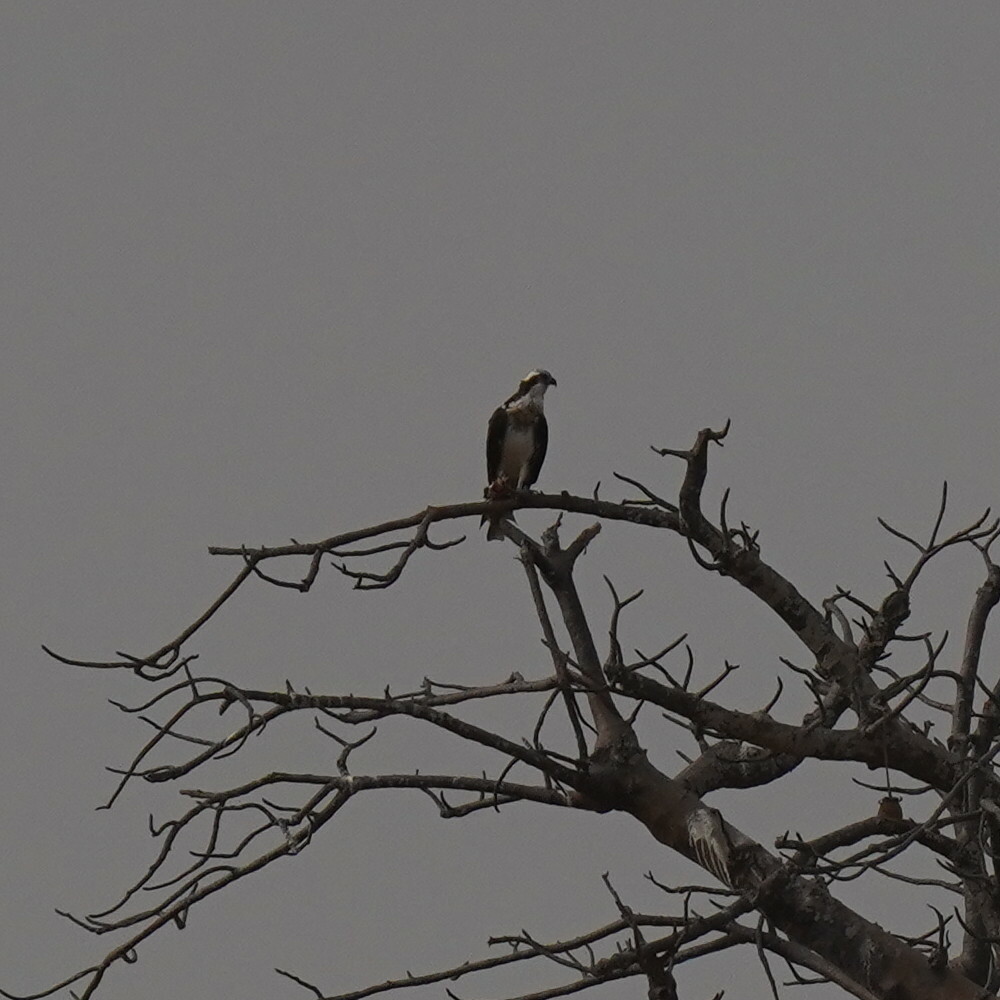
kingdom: Animalia
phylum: Chordata
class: Aves
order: Accipitriformes
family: Pandionidae
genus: Pandion
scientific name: Pandion haliaetus
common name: Osprey
